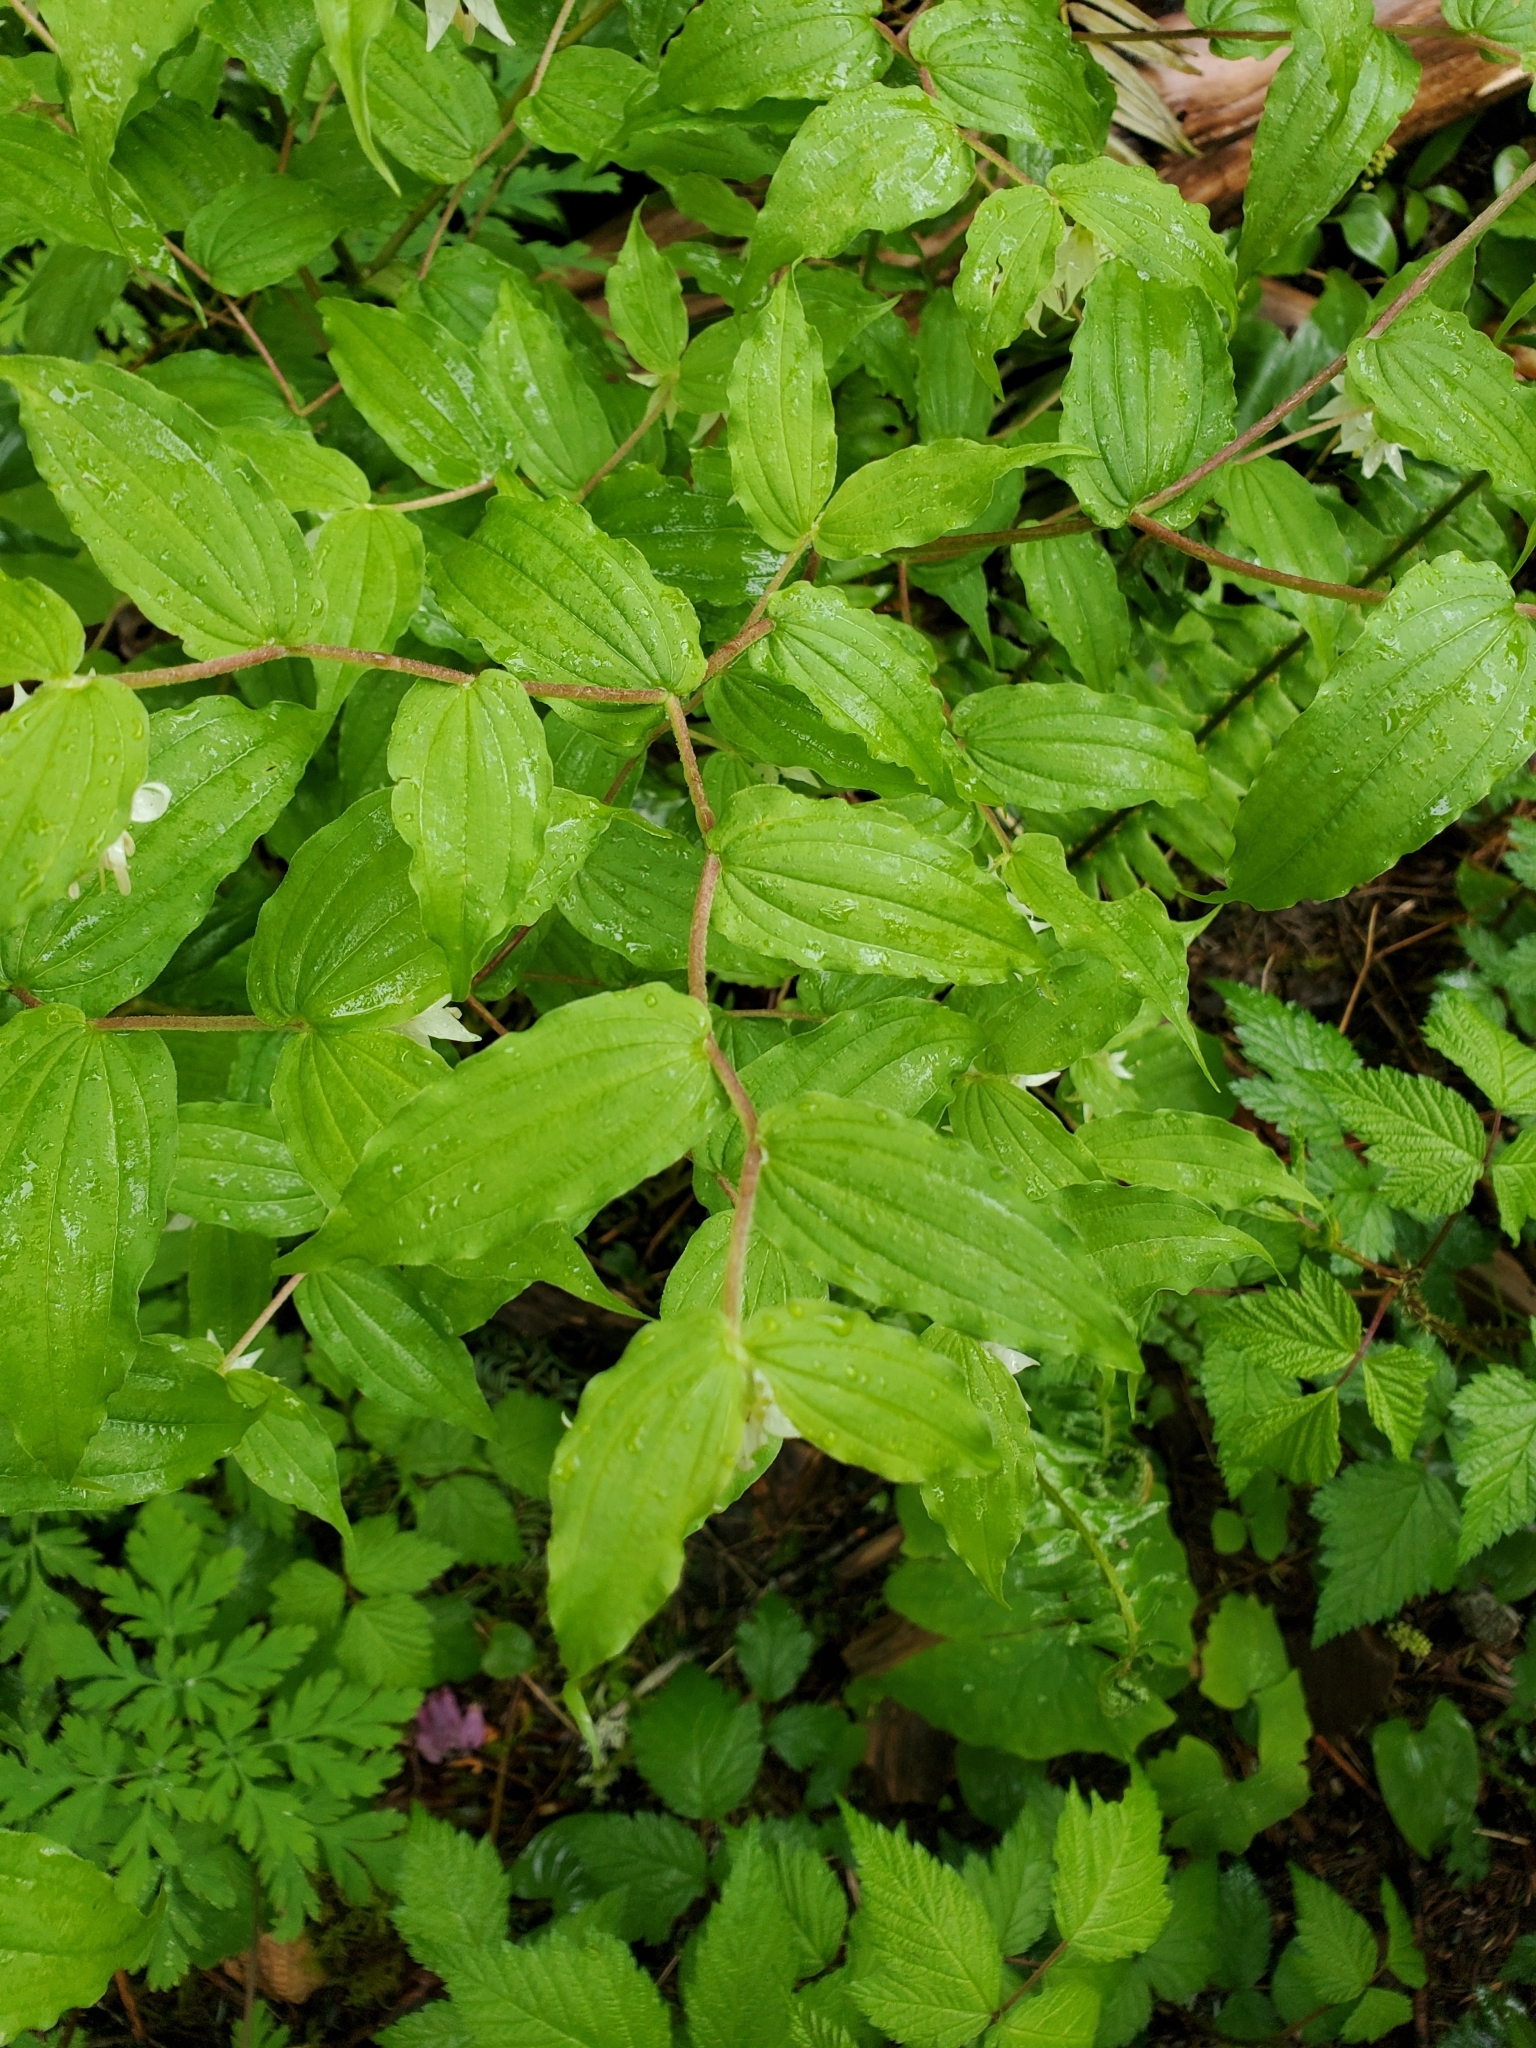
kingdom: Plantae
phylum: Tracheophyta
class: Liliopsida
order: Liliales
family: Liliaceae
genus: Prosartes
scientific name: Prosartes hookeri
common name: Fairy-bells
